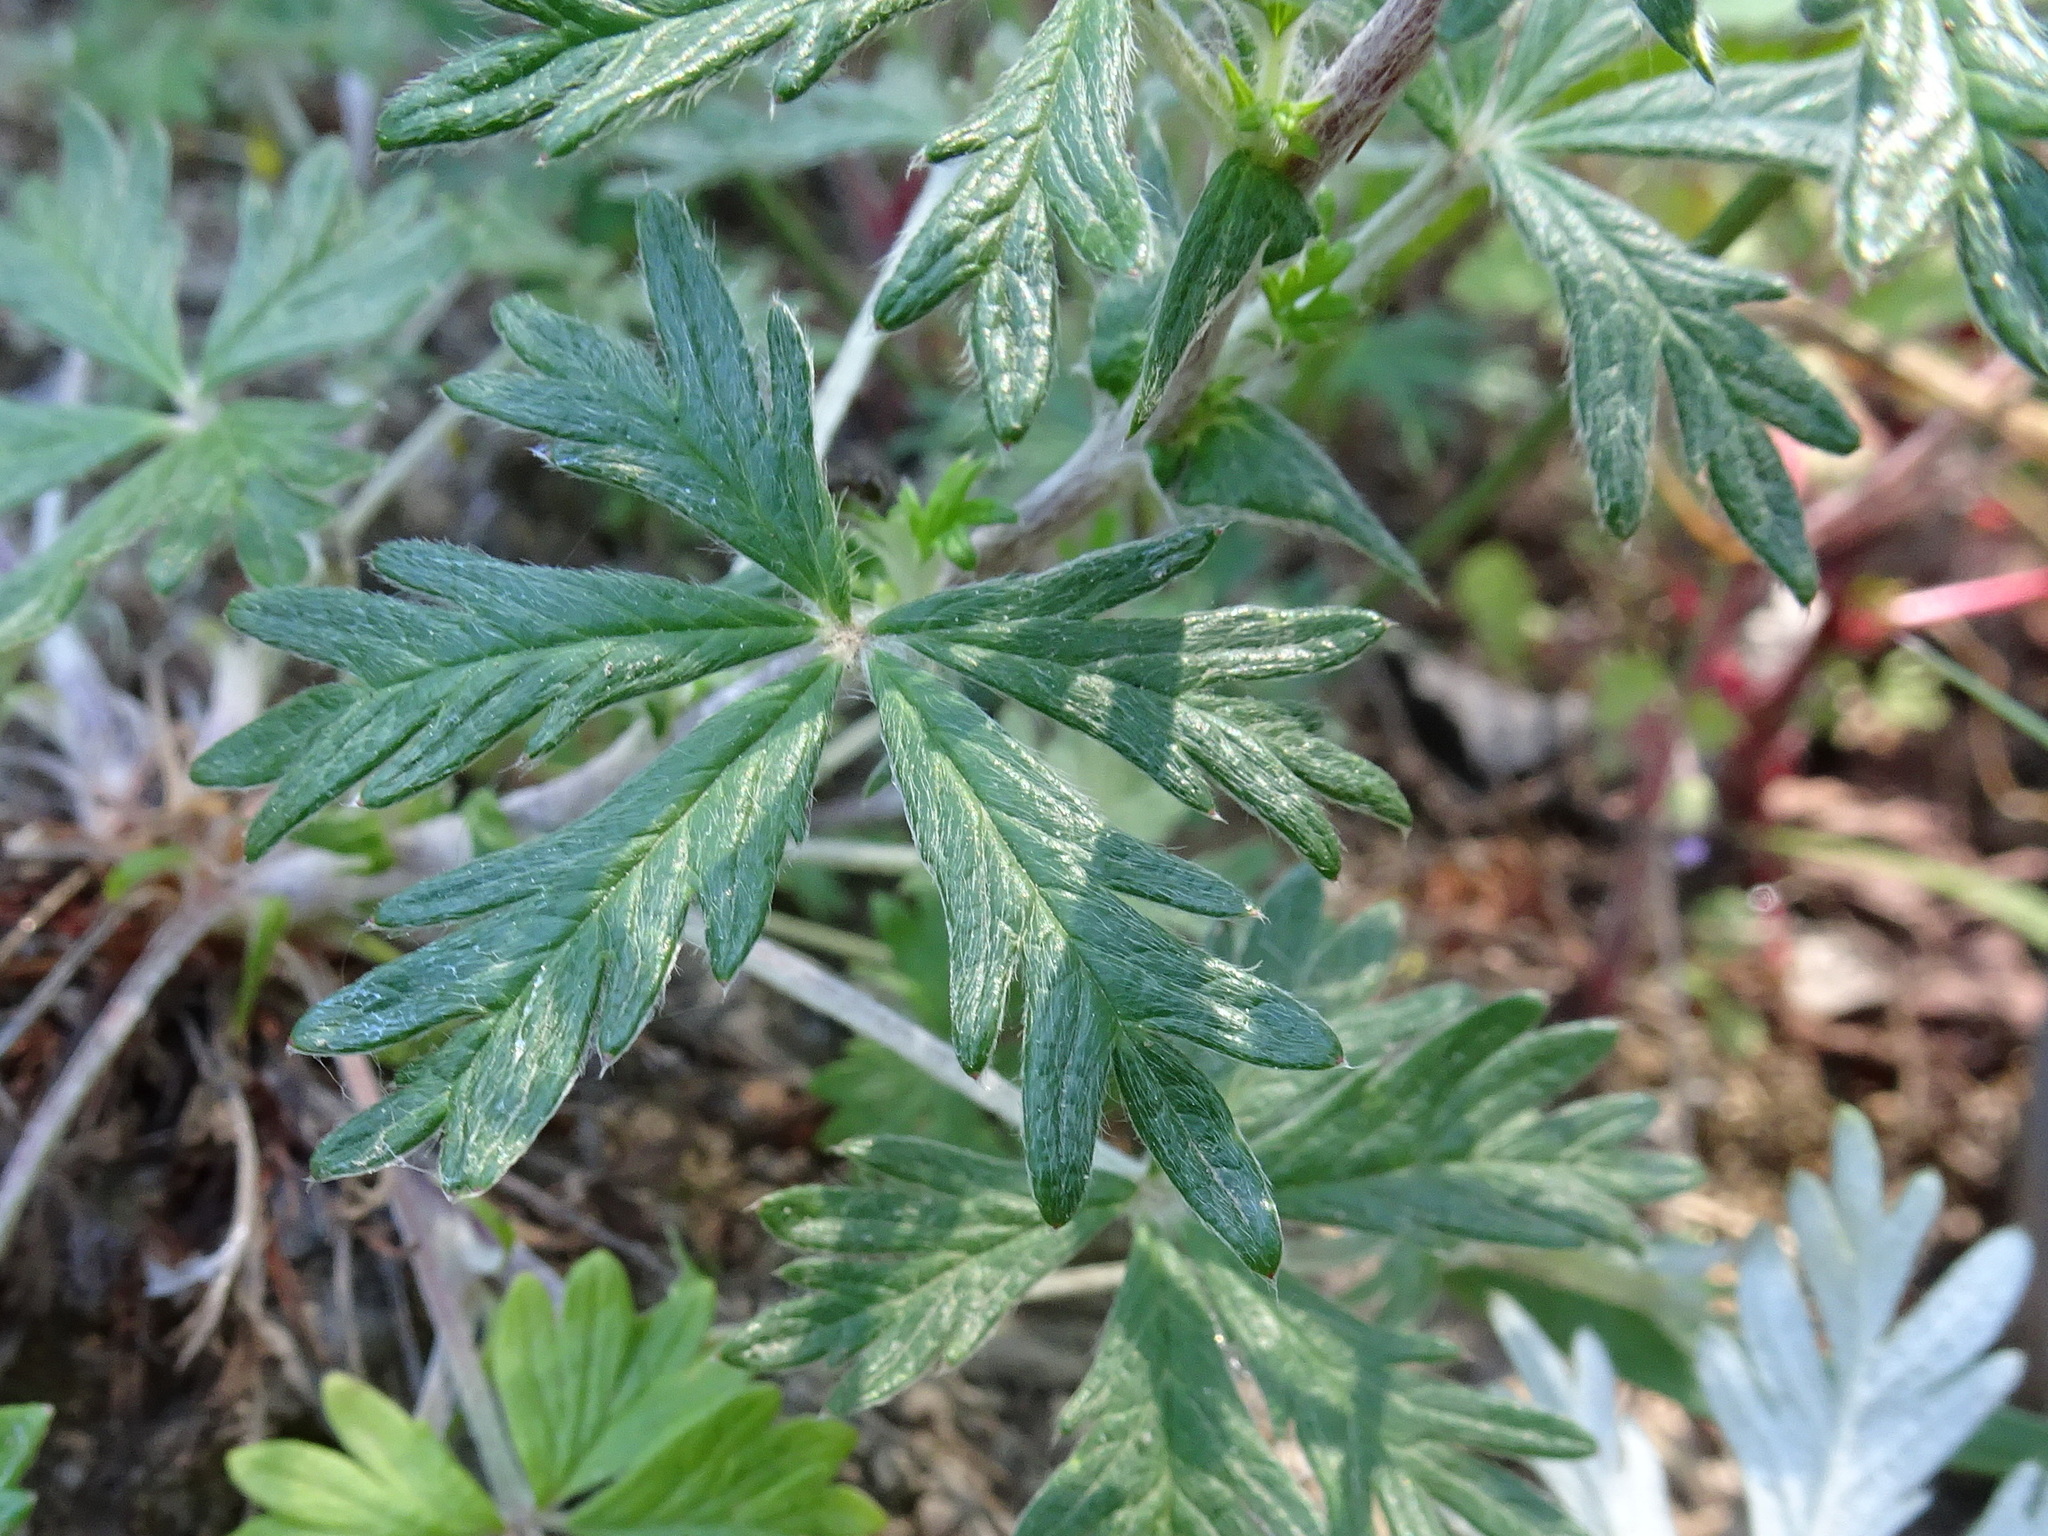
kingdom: Plantae
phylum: Tracheophyta
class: Magnoliopsida
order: Rosales
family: Rosaceae
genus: Potentilla
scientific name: Potentilla argentea
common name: Hoary cinquefoil
